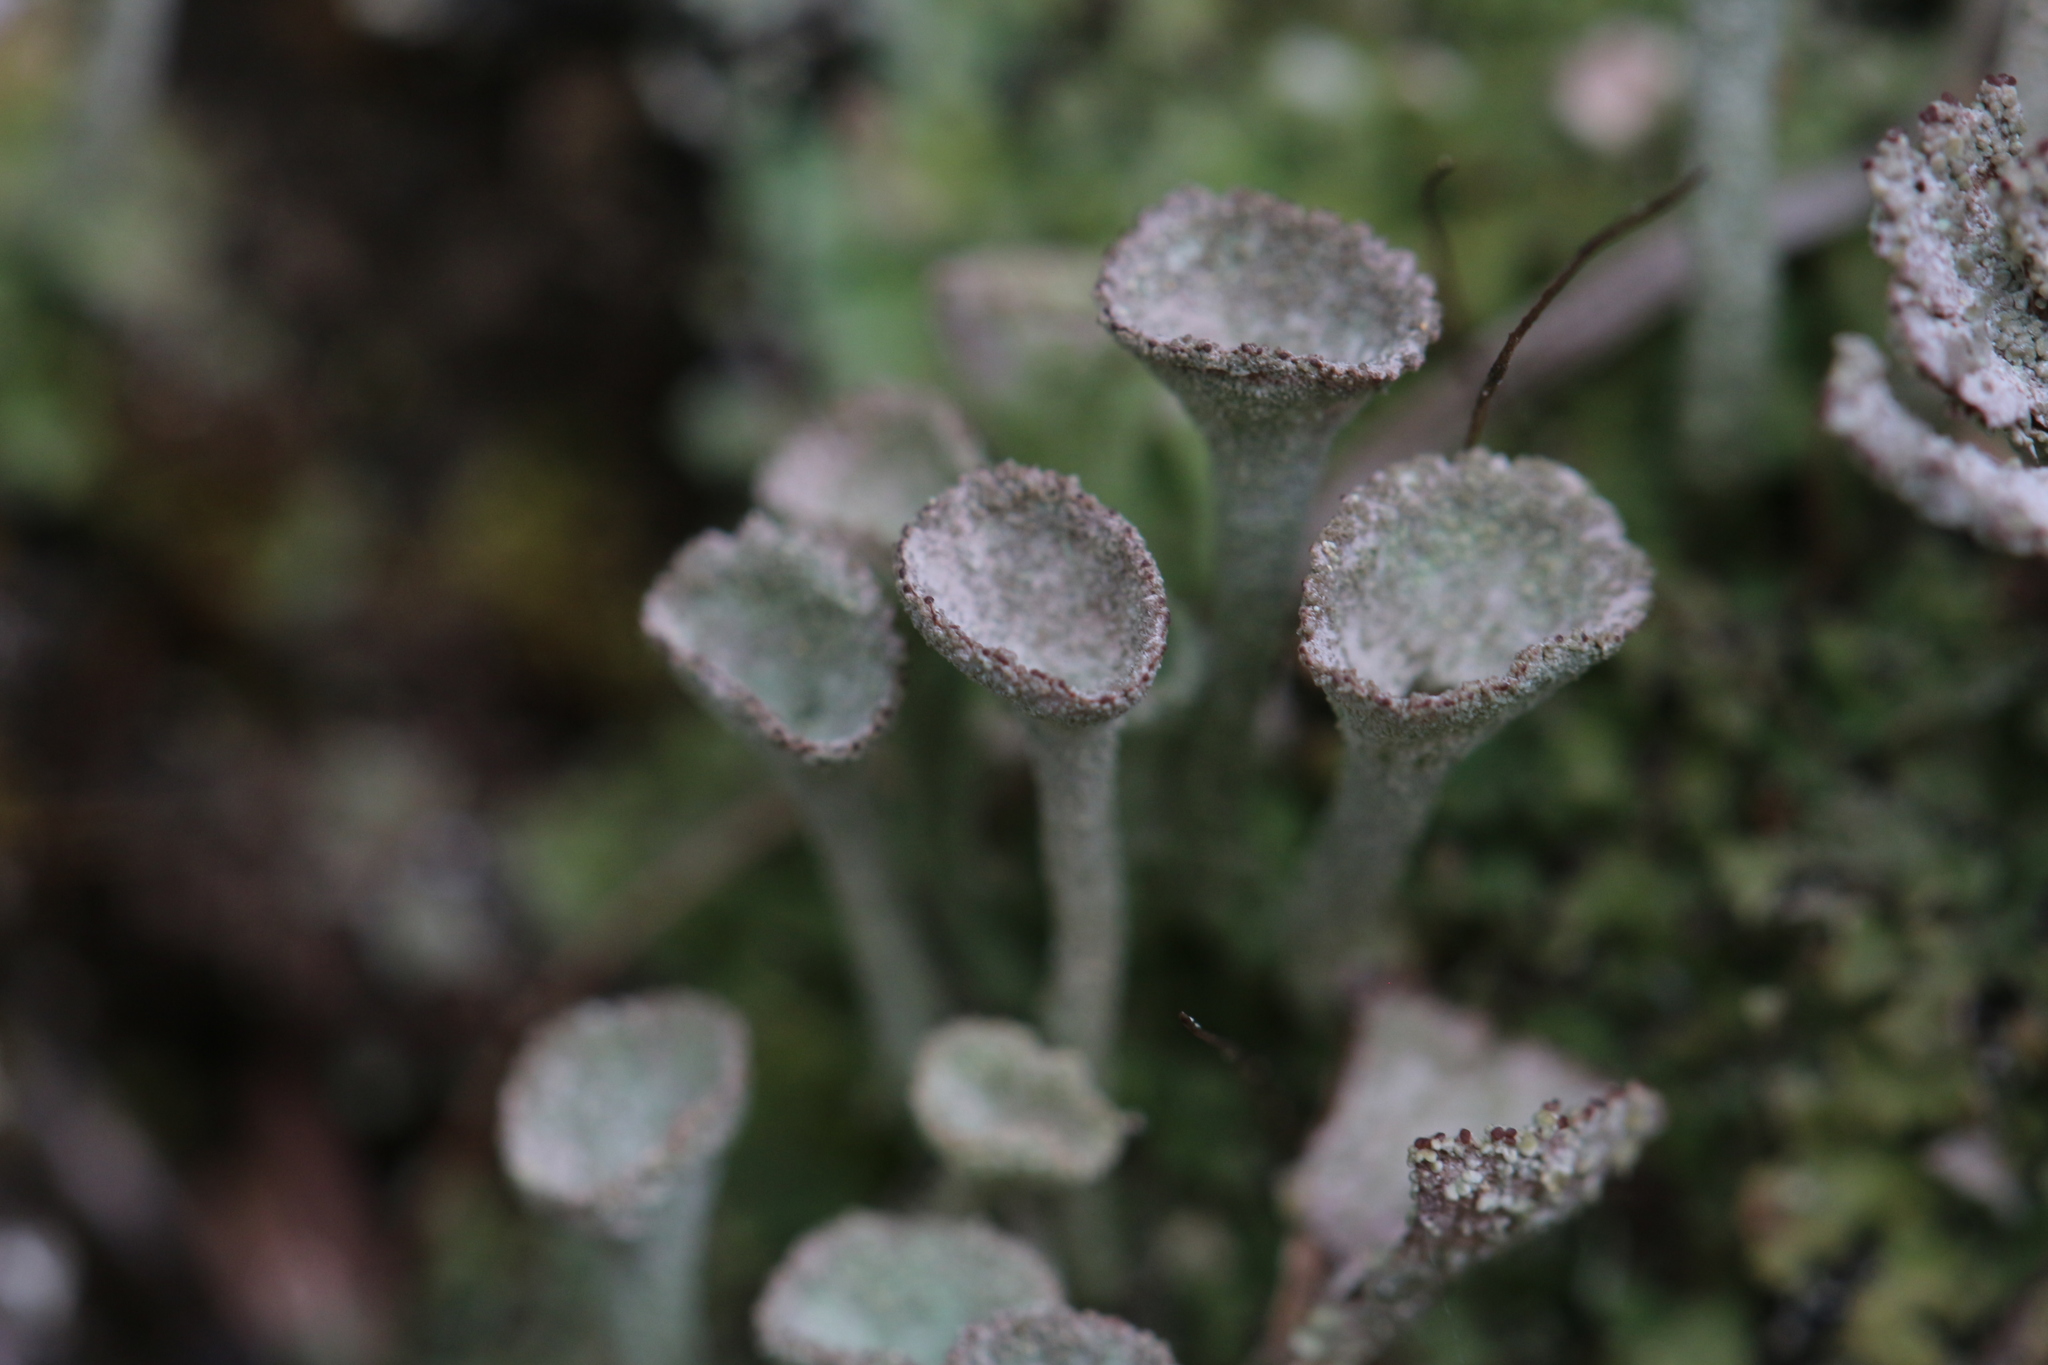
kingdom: Fungi
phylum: Ascomycota
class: Lecanoromycetes
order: Lecanorales
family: Cladoniaceae
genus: Cladonia
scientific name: Cladonia fimbriata
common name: Powdered trumpet lichen
